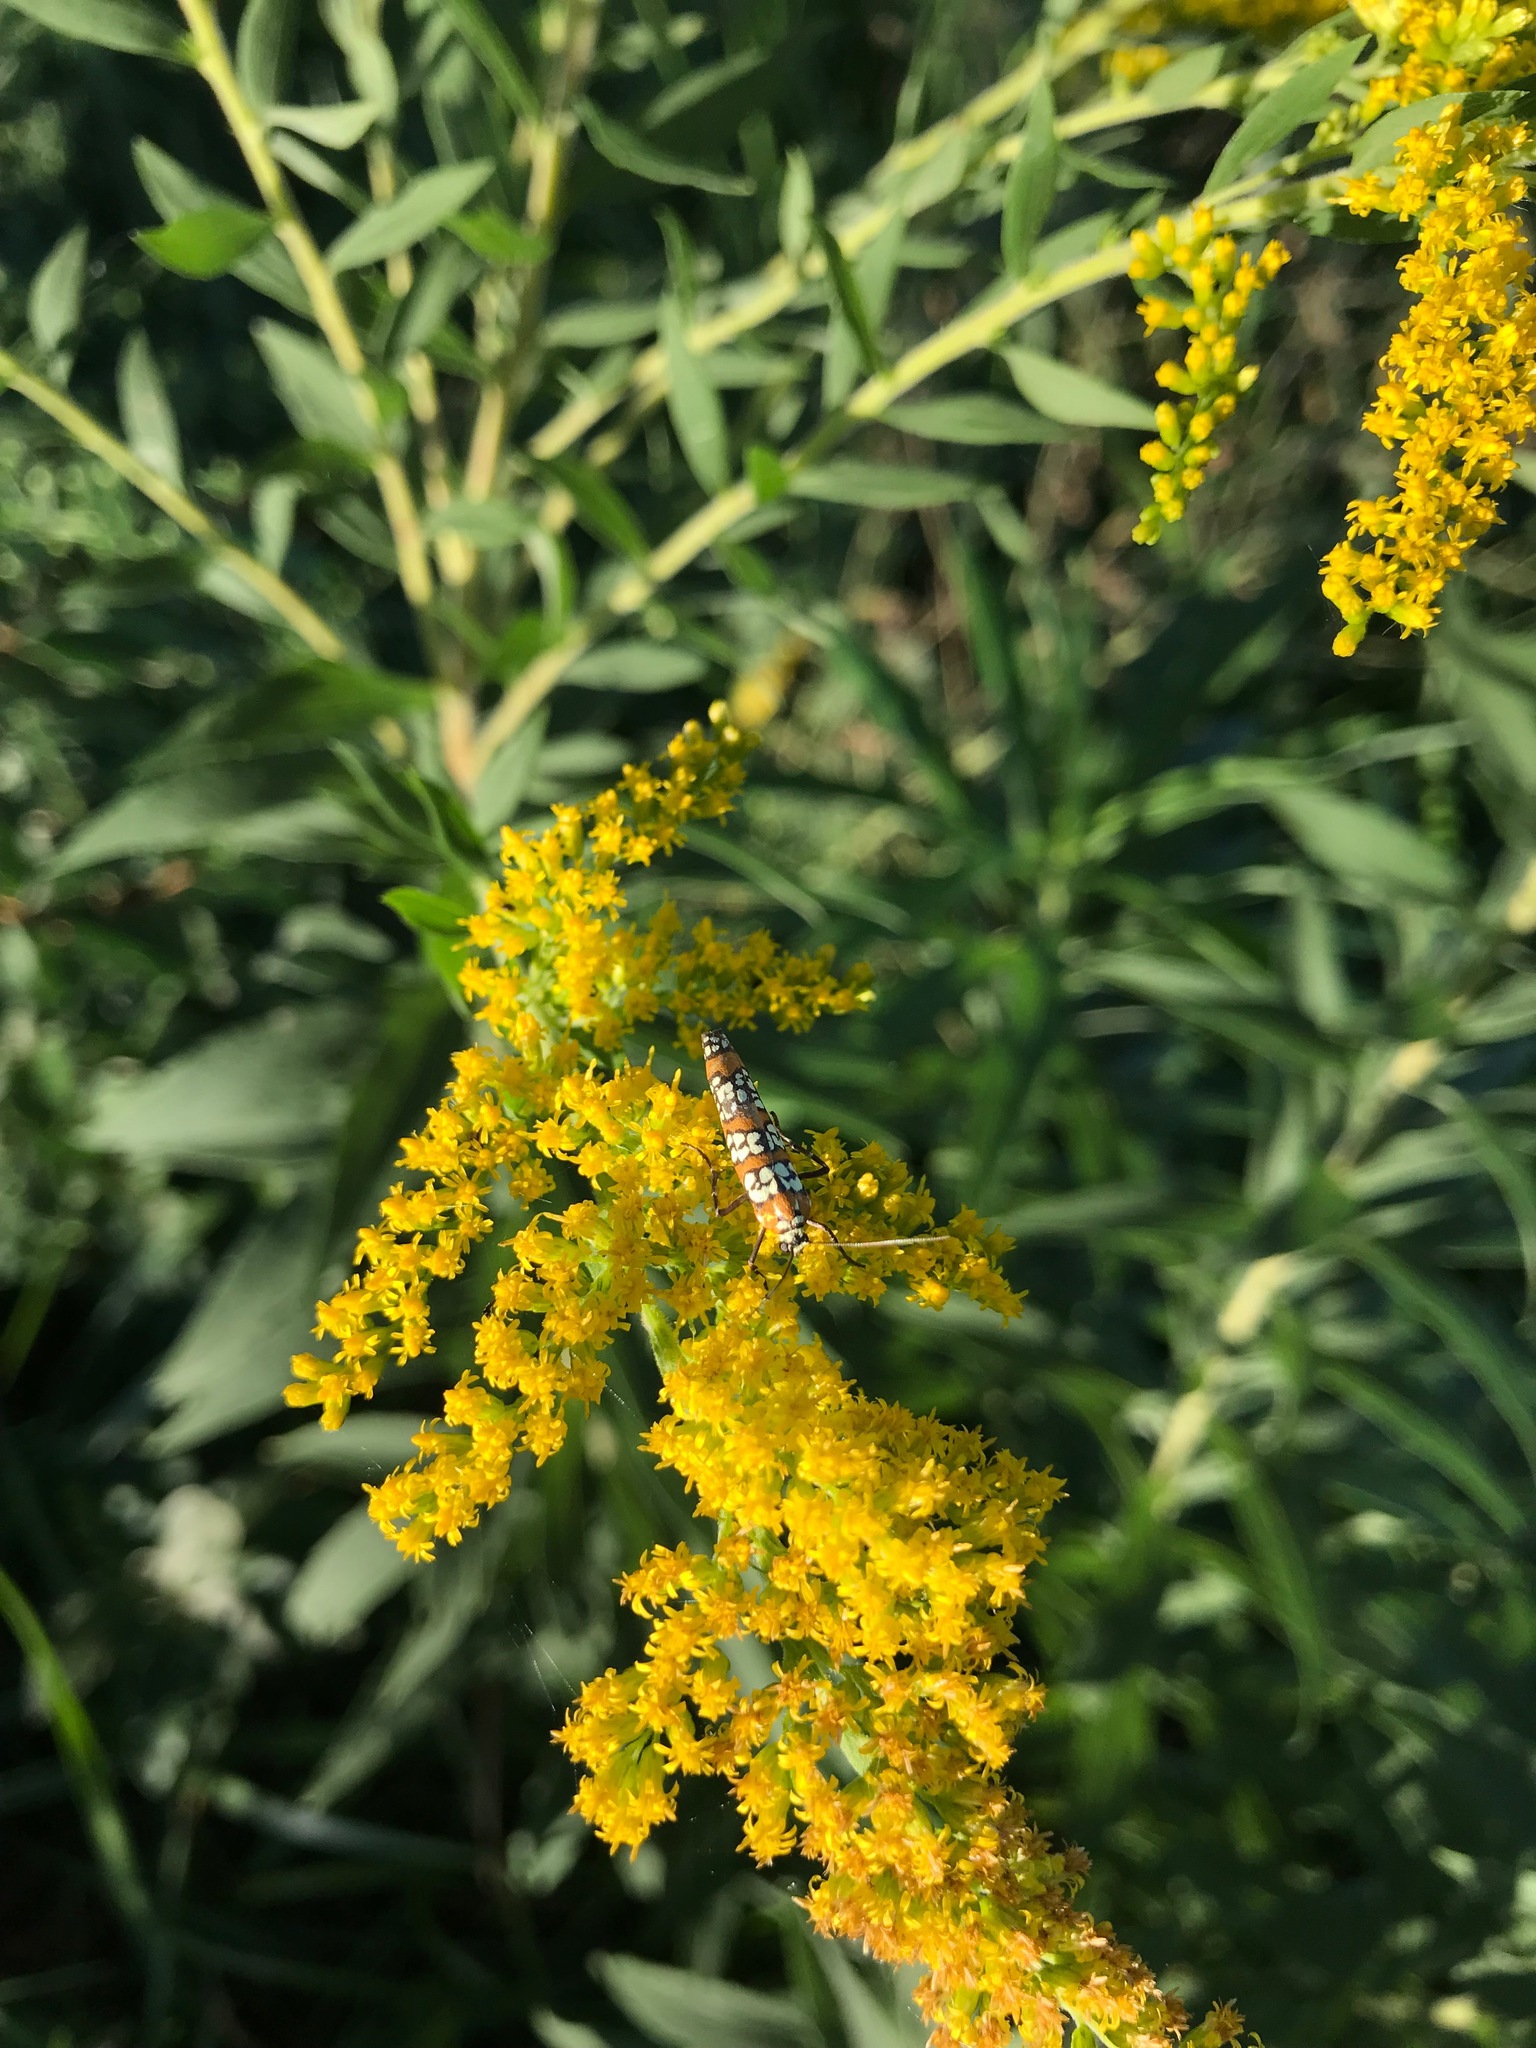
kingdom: Animalia
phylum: Arthropoda
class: Insecta
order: Lepidoptera
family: Attevidae
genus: Atteva
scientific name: Atteva punctella
